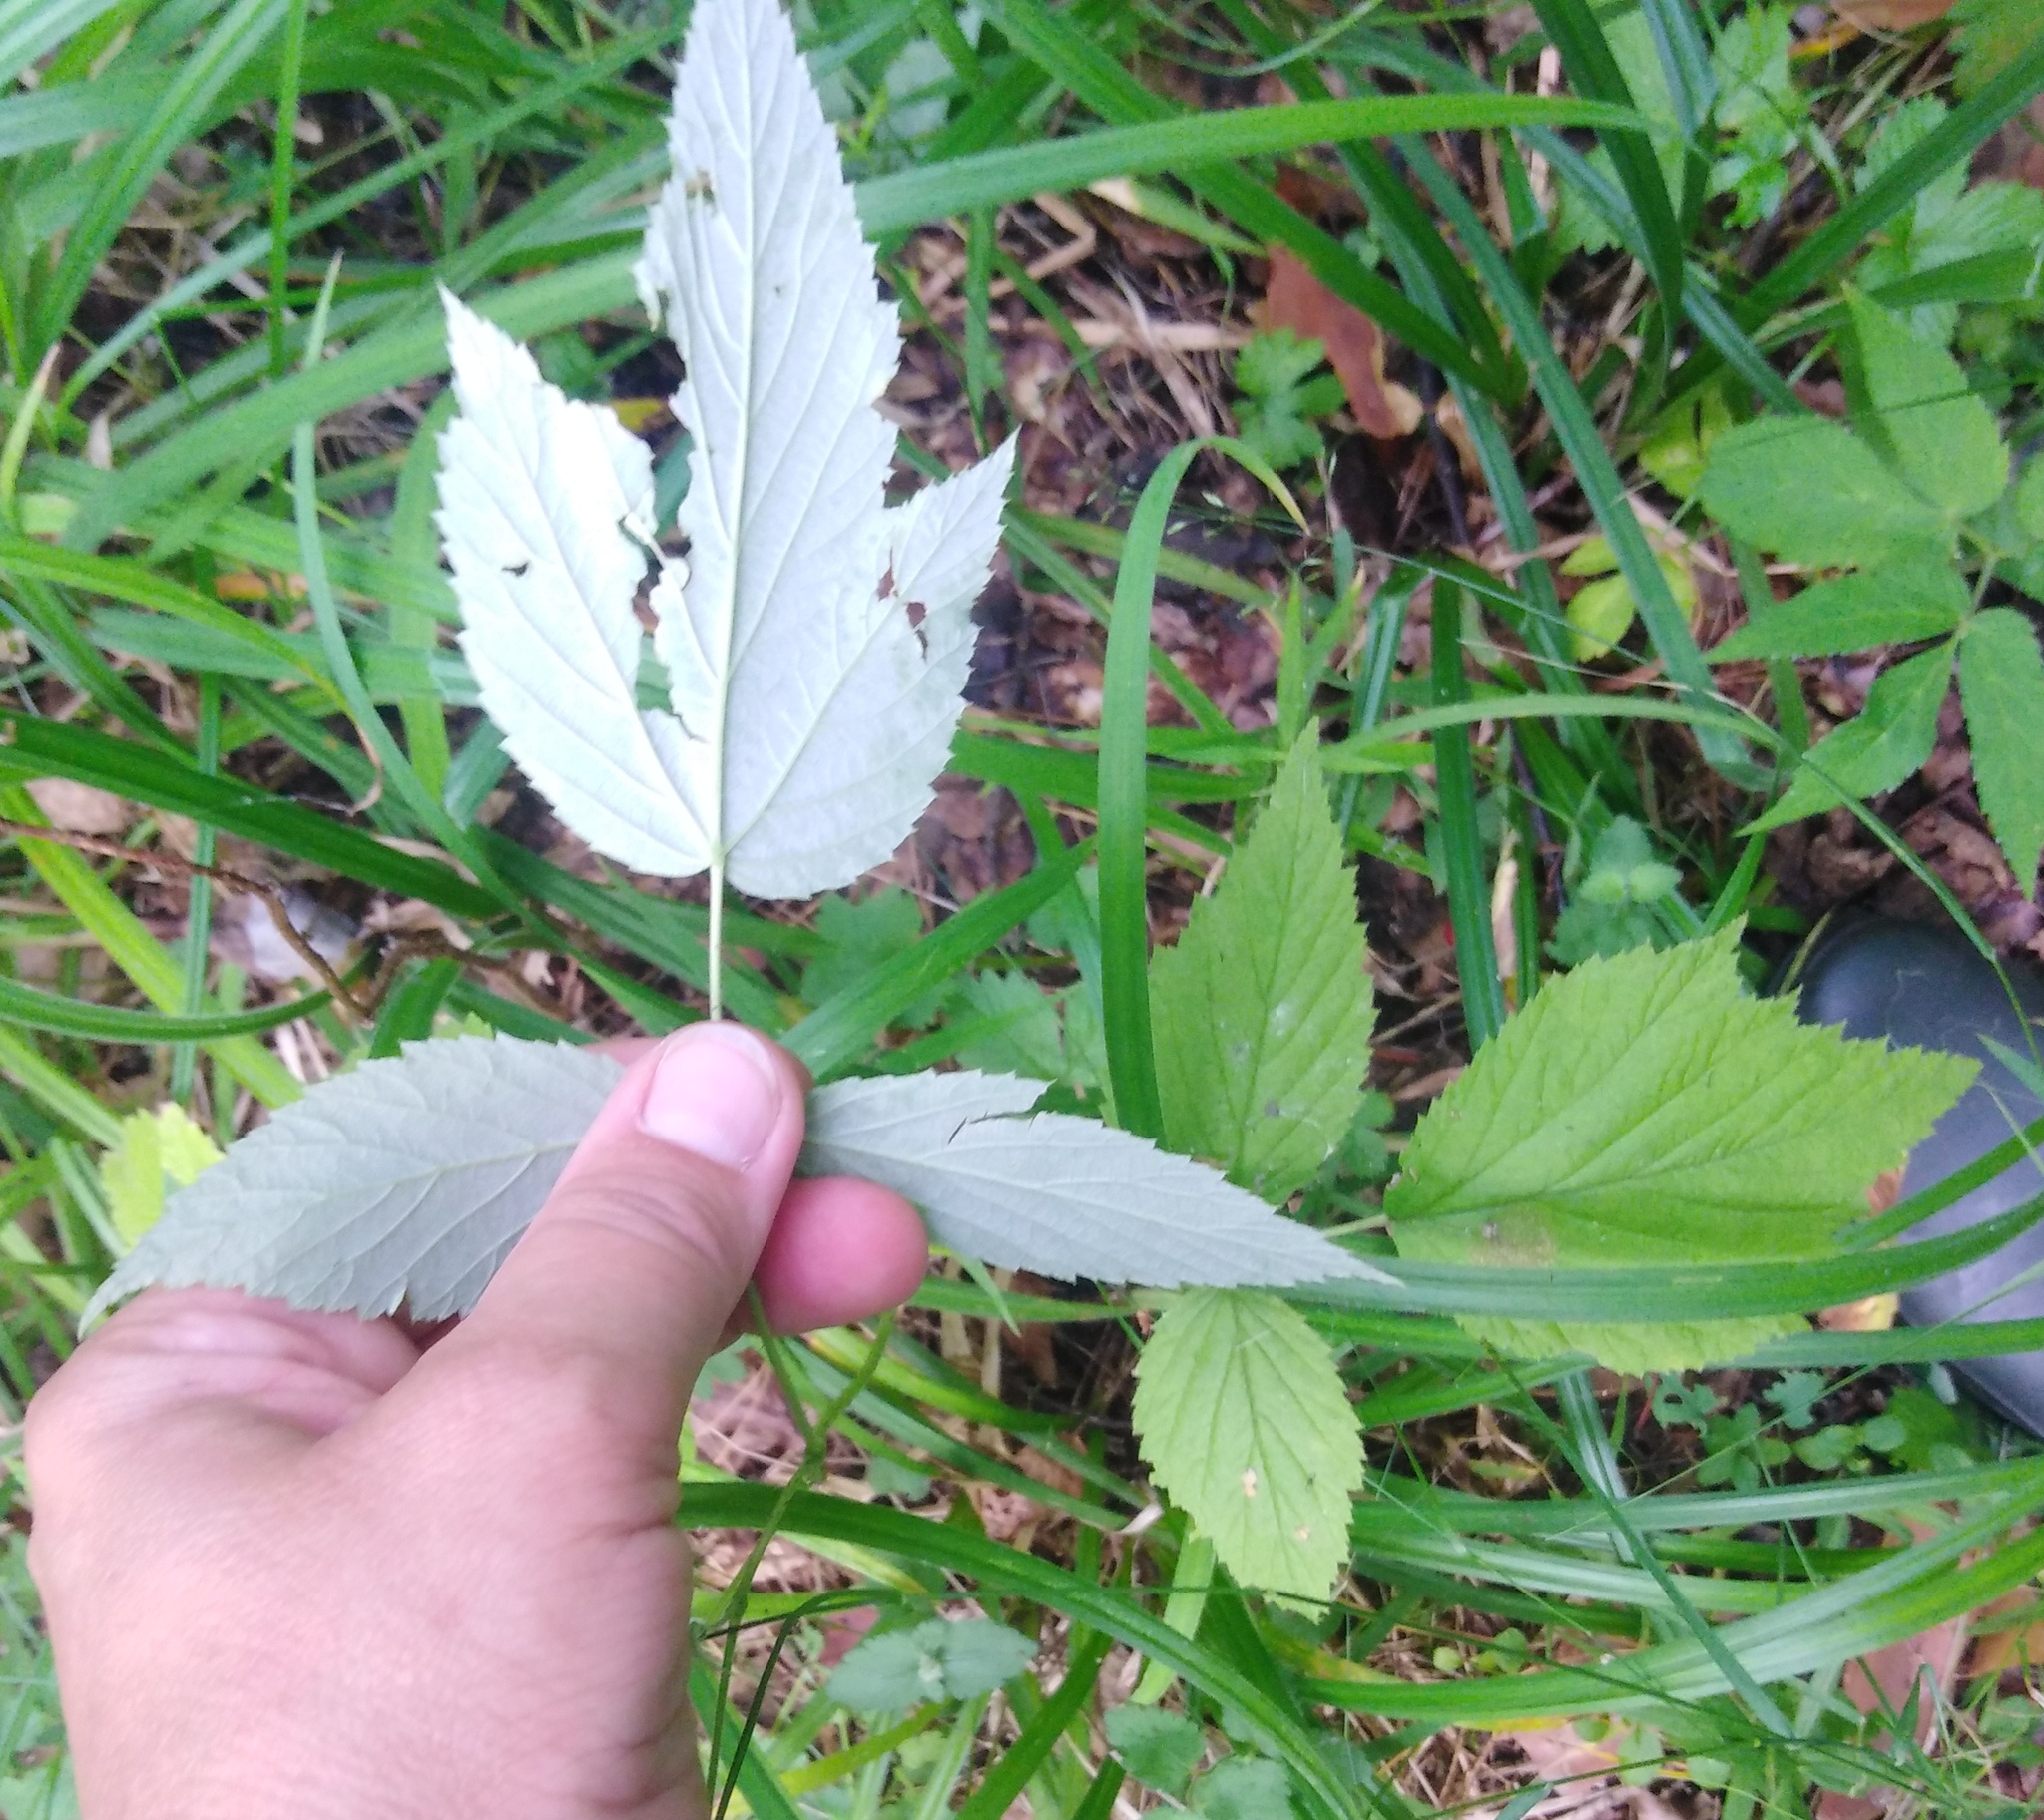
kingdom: Plantae
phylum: Tracheophyta
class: Magnoliopsida
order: Rosales
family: Rosaceae
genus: Rubus
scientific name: Rubus idaeus
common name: Raspberry
